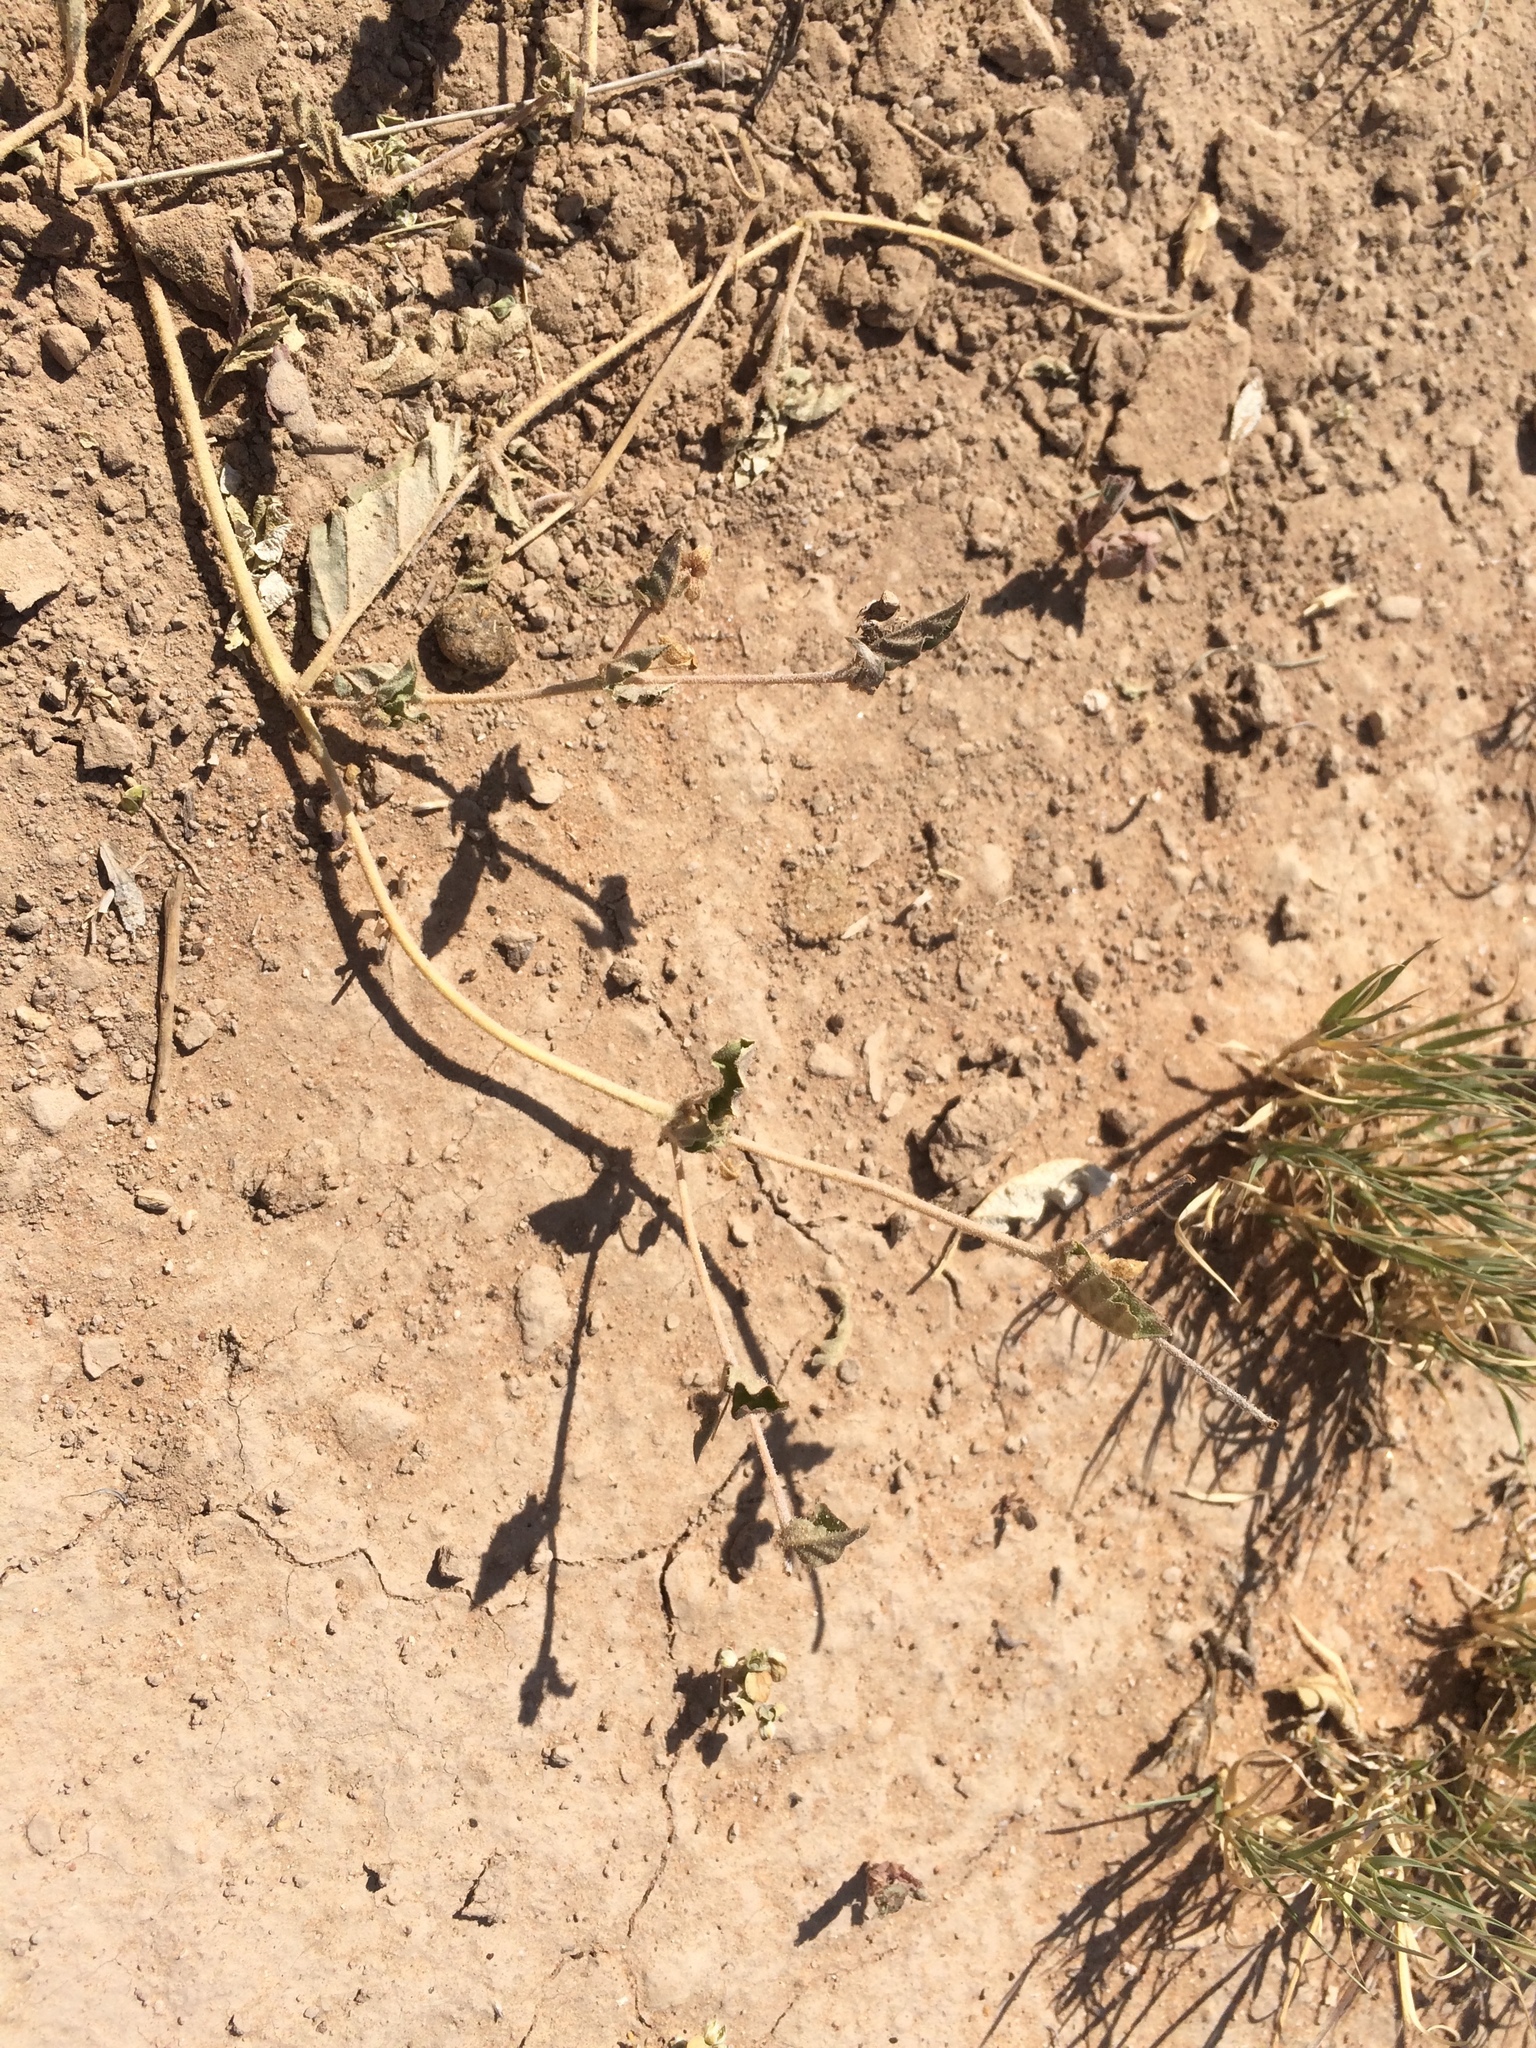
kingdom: Plantae
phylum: Tracheophyta
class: Magnoliopsida
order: Caryophyllales
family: Nyctaginaceae
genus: Allionia
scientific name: Allionia incarnata
